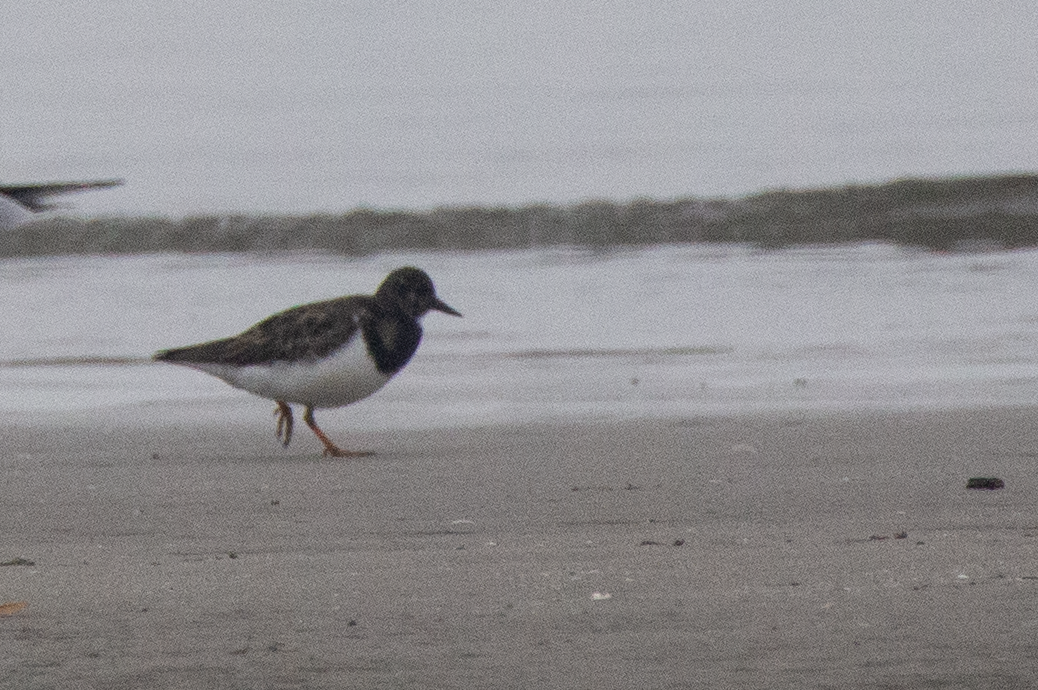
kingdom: Animalia
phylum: Chordata
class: Aves
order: Charadriiformes
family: Scolopacidae
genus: Arenaria
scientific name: Arenaria interpres
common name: Ruddy turnstone
